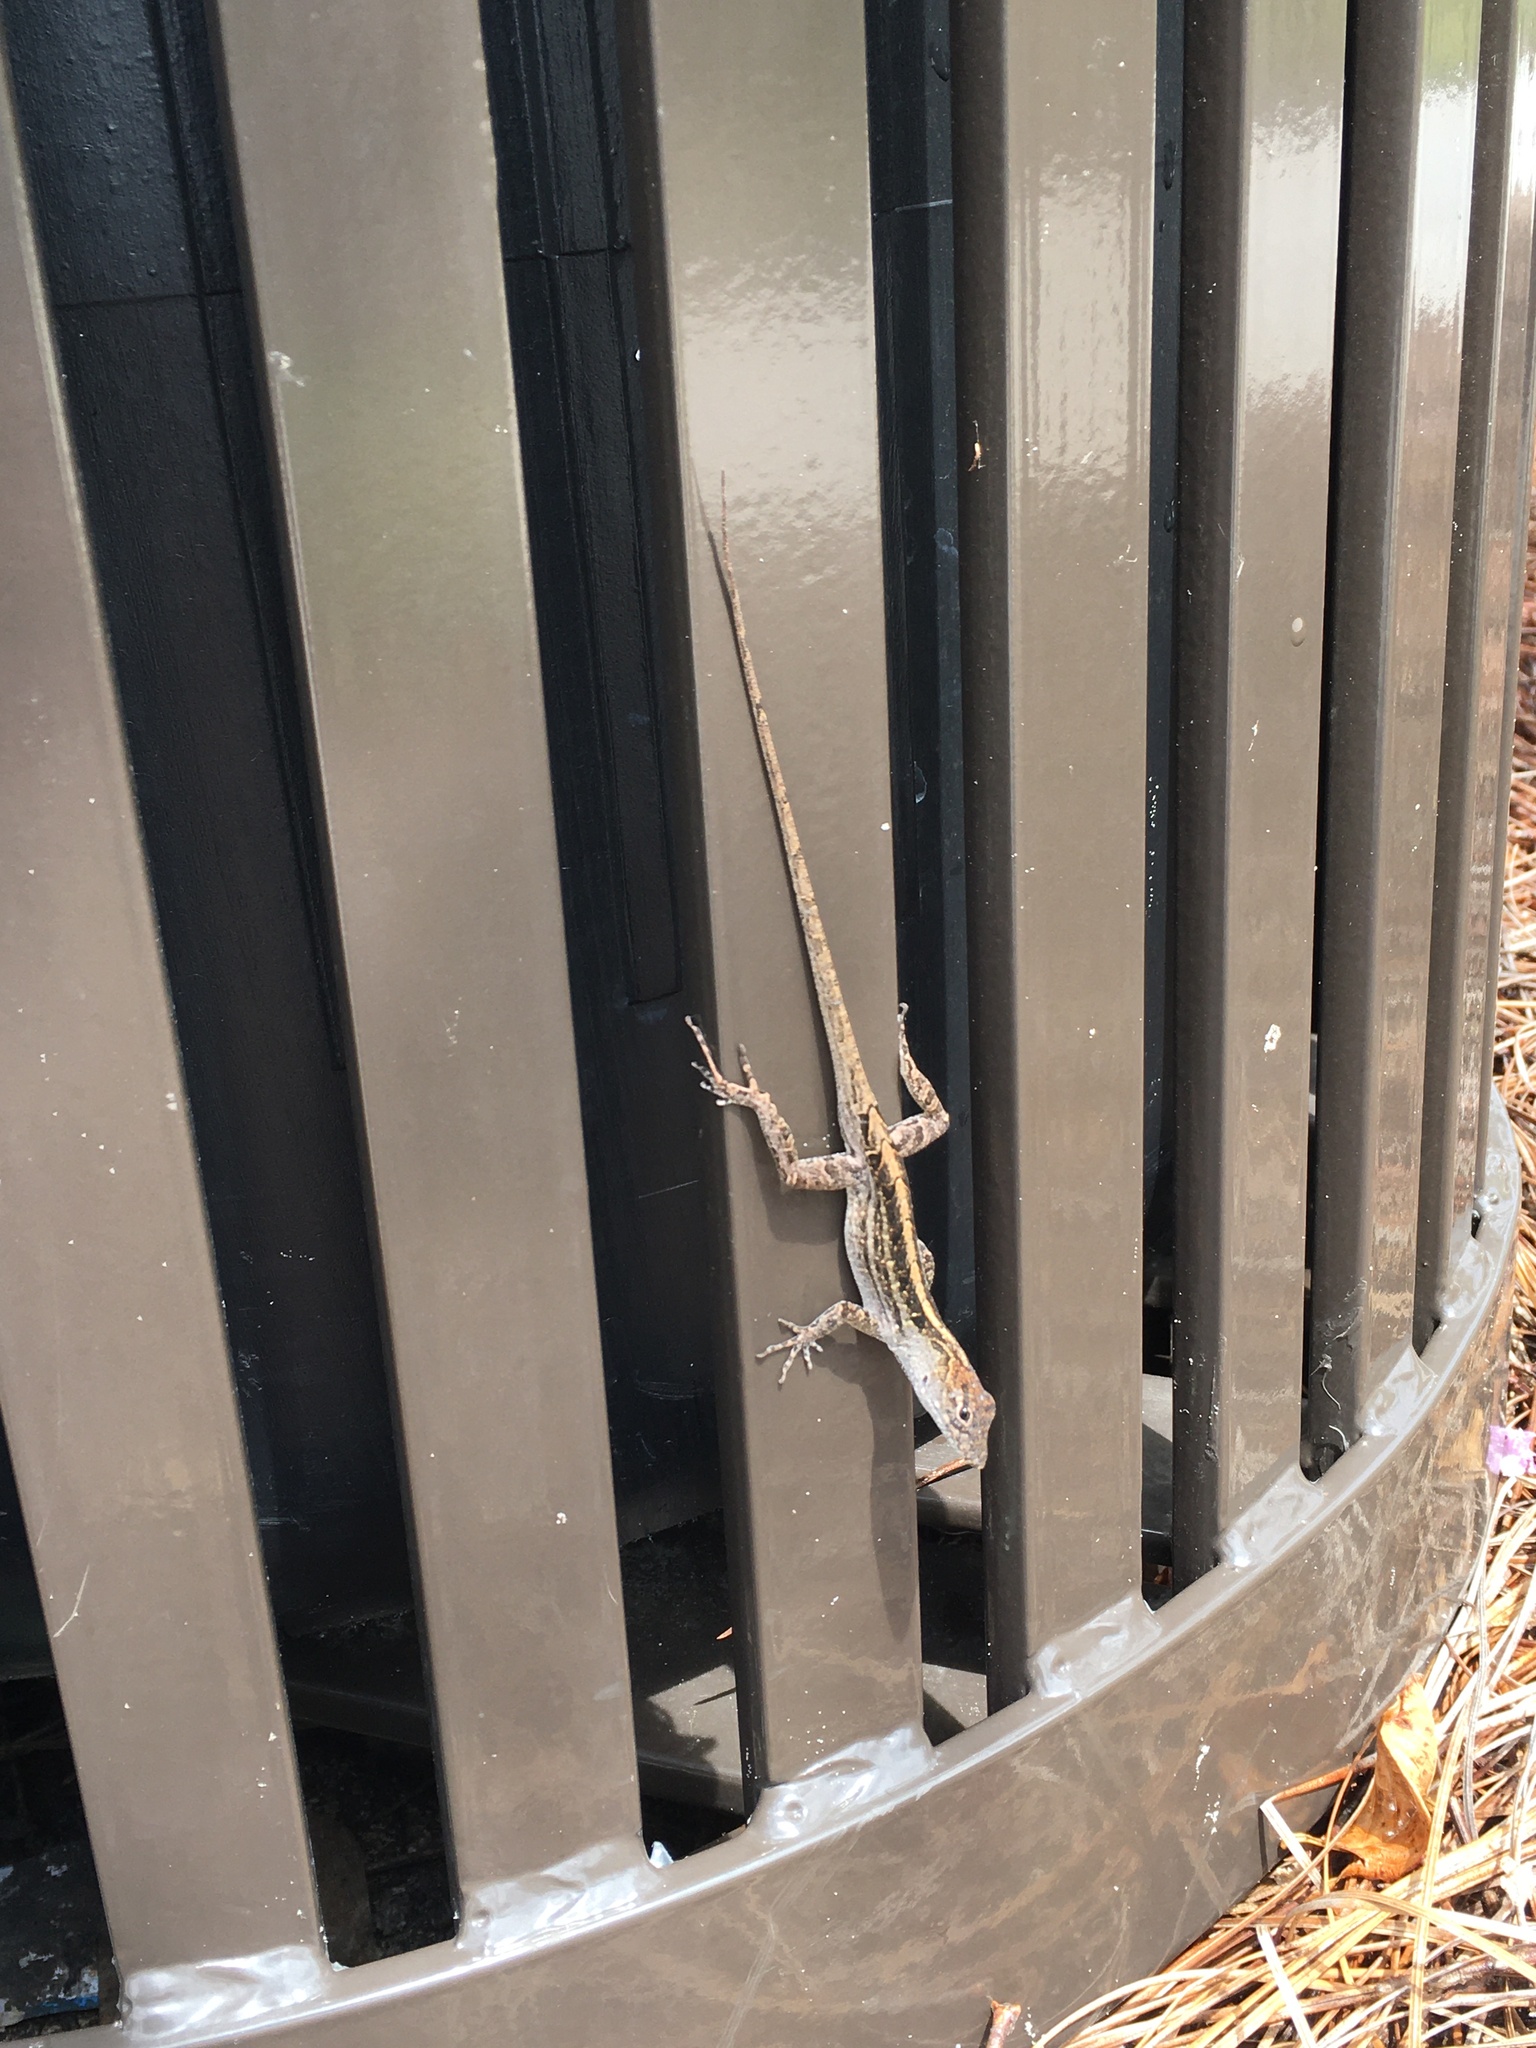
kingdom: Animalia
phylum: Chordata
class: Squamata
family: Dactyloidae
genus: Anolis
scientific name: Anolis sagrei
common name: Brown anole
